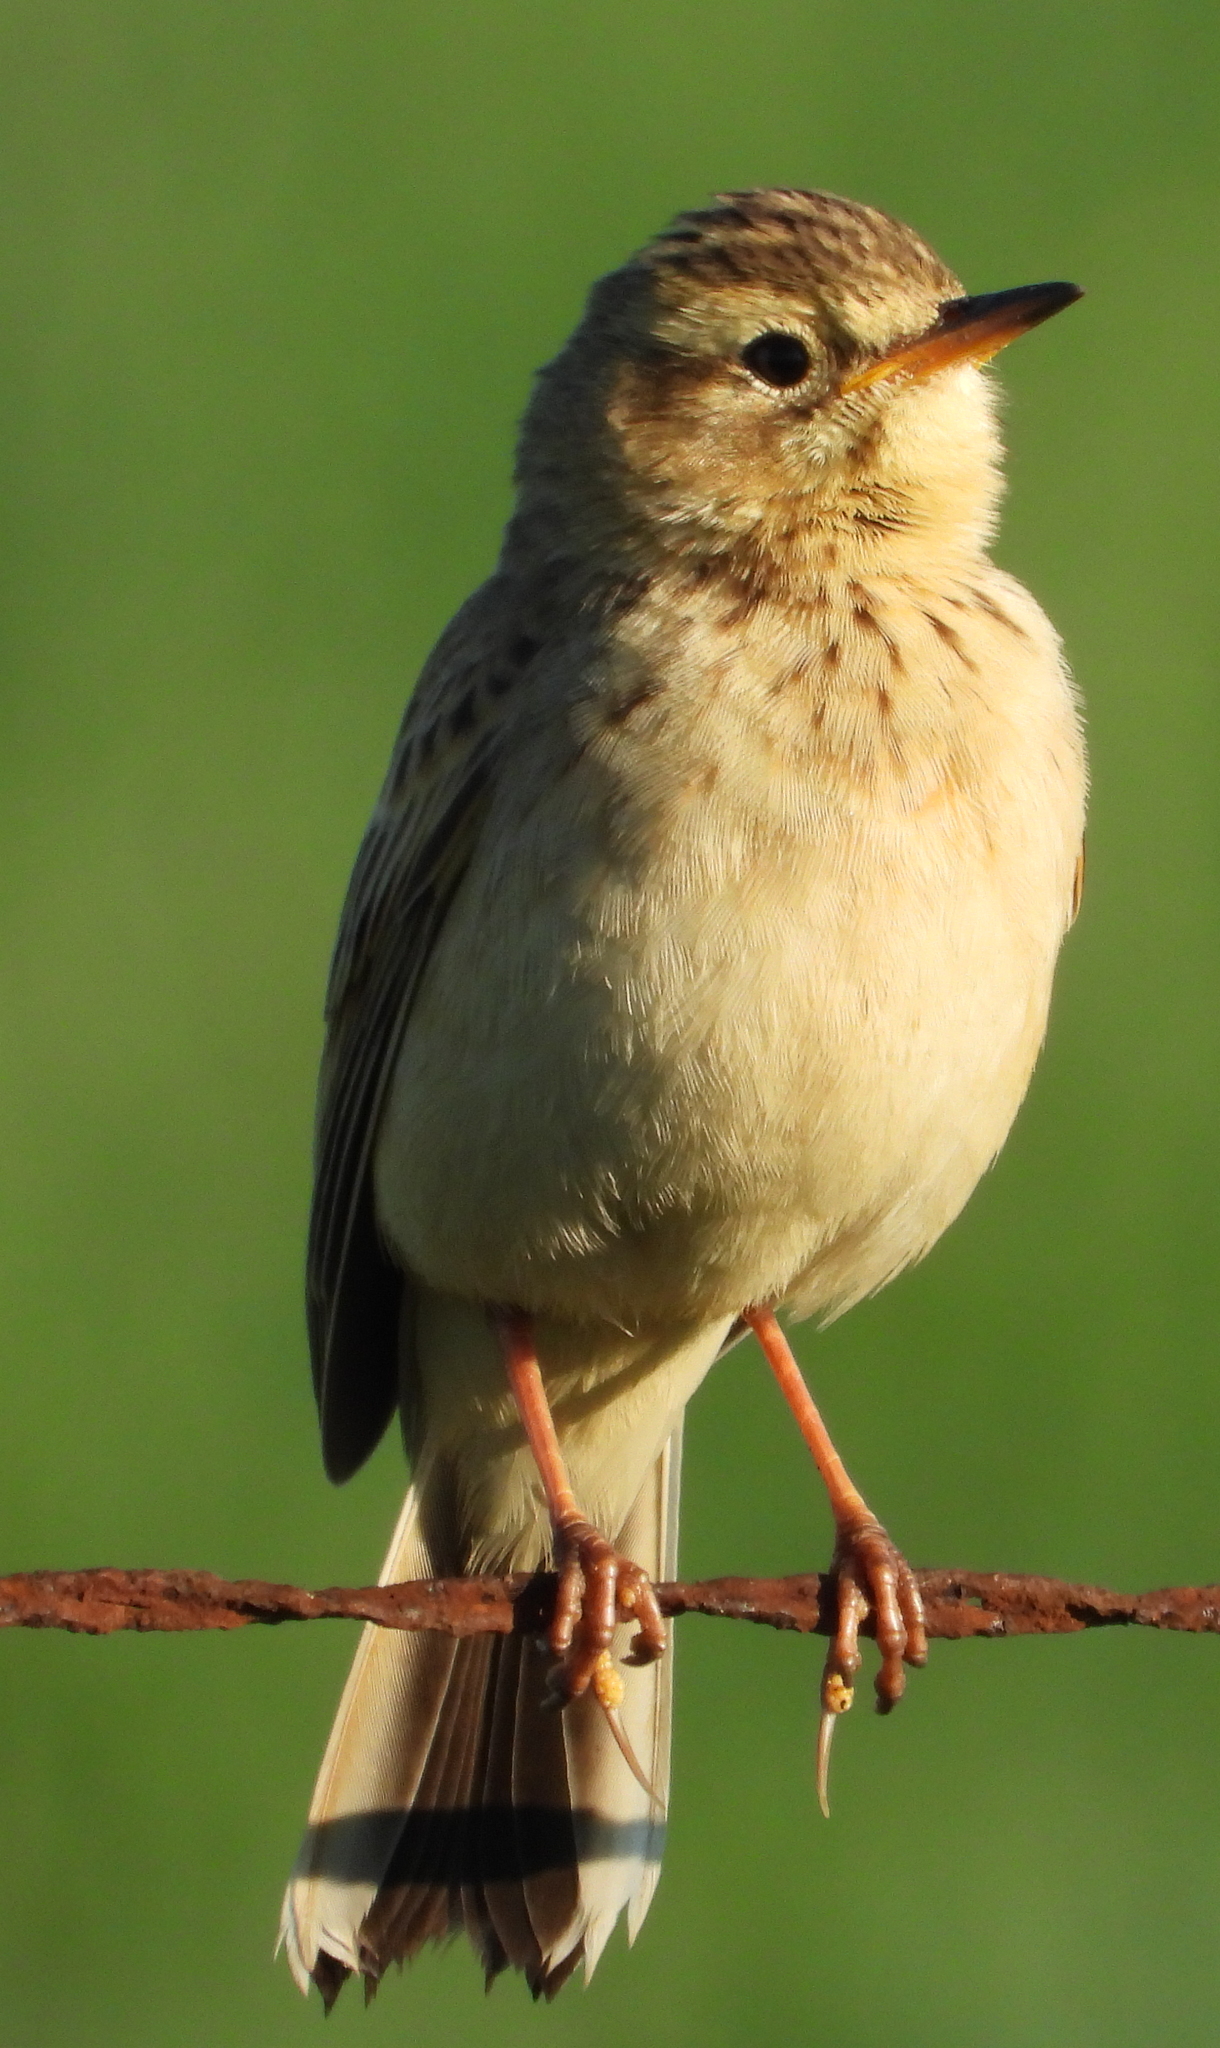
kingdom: Animalia
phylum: Chordata
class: Aves
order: Passeriformes
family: Motacillidae
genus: Anthus
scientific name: Anthus cinnamomeus
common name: African pipit
